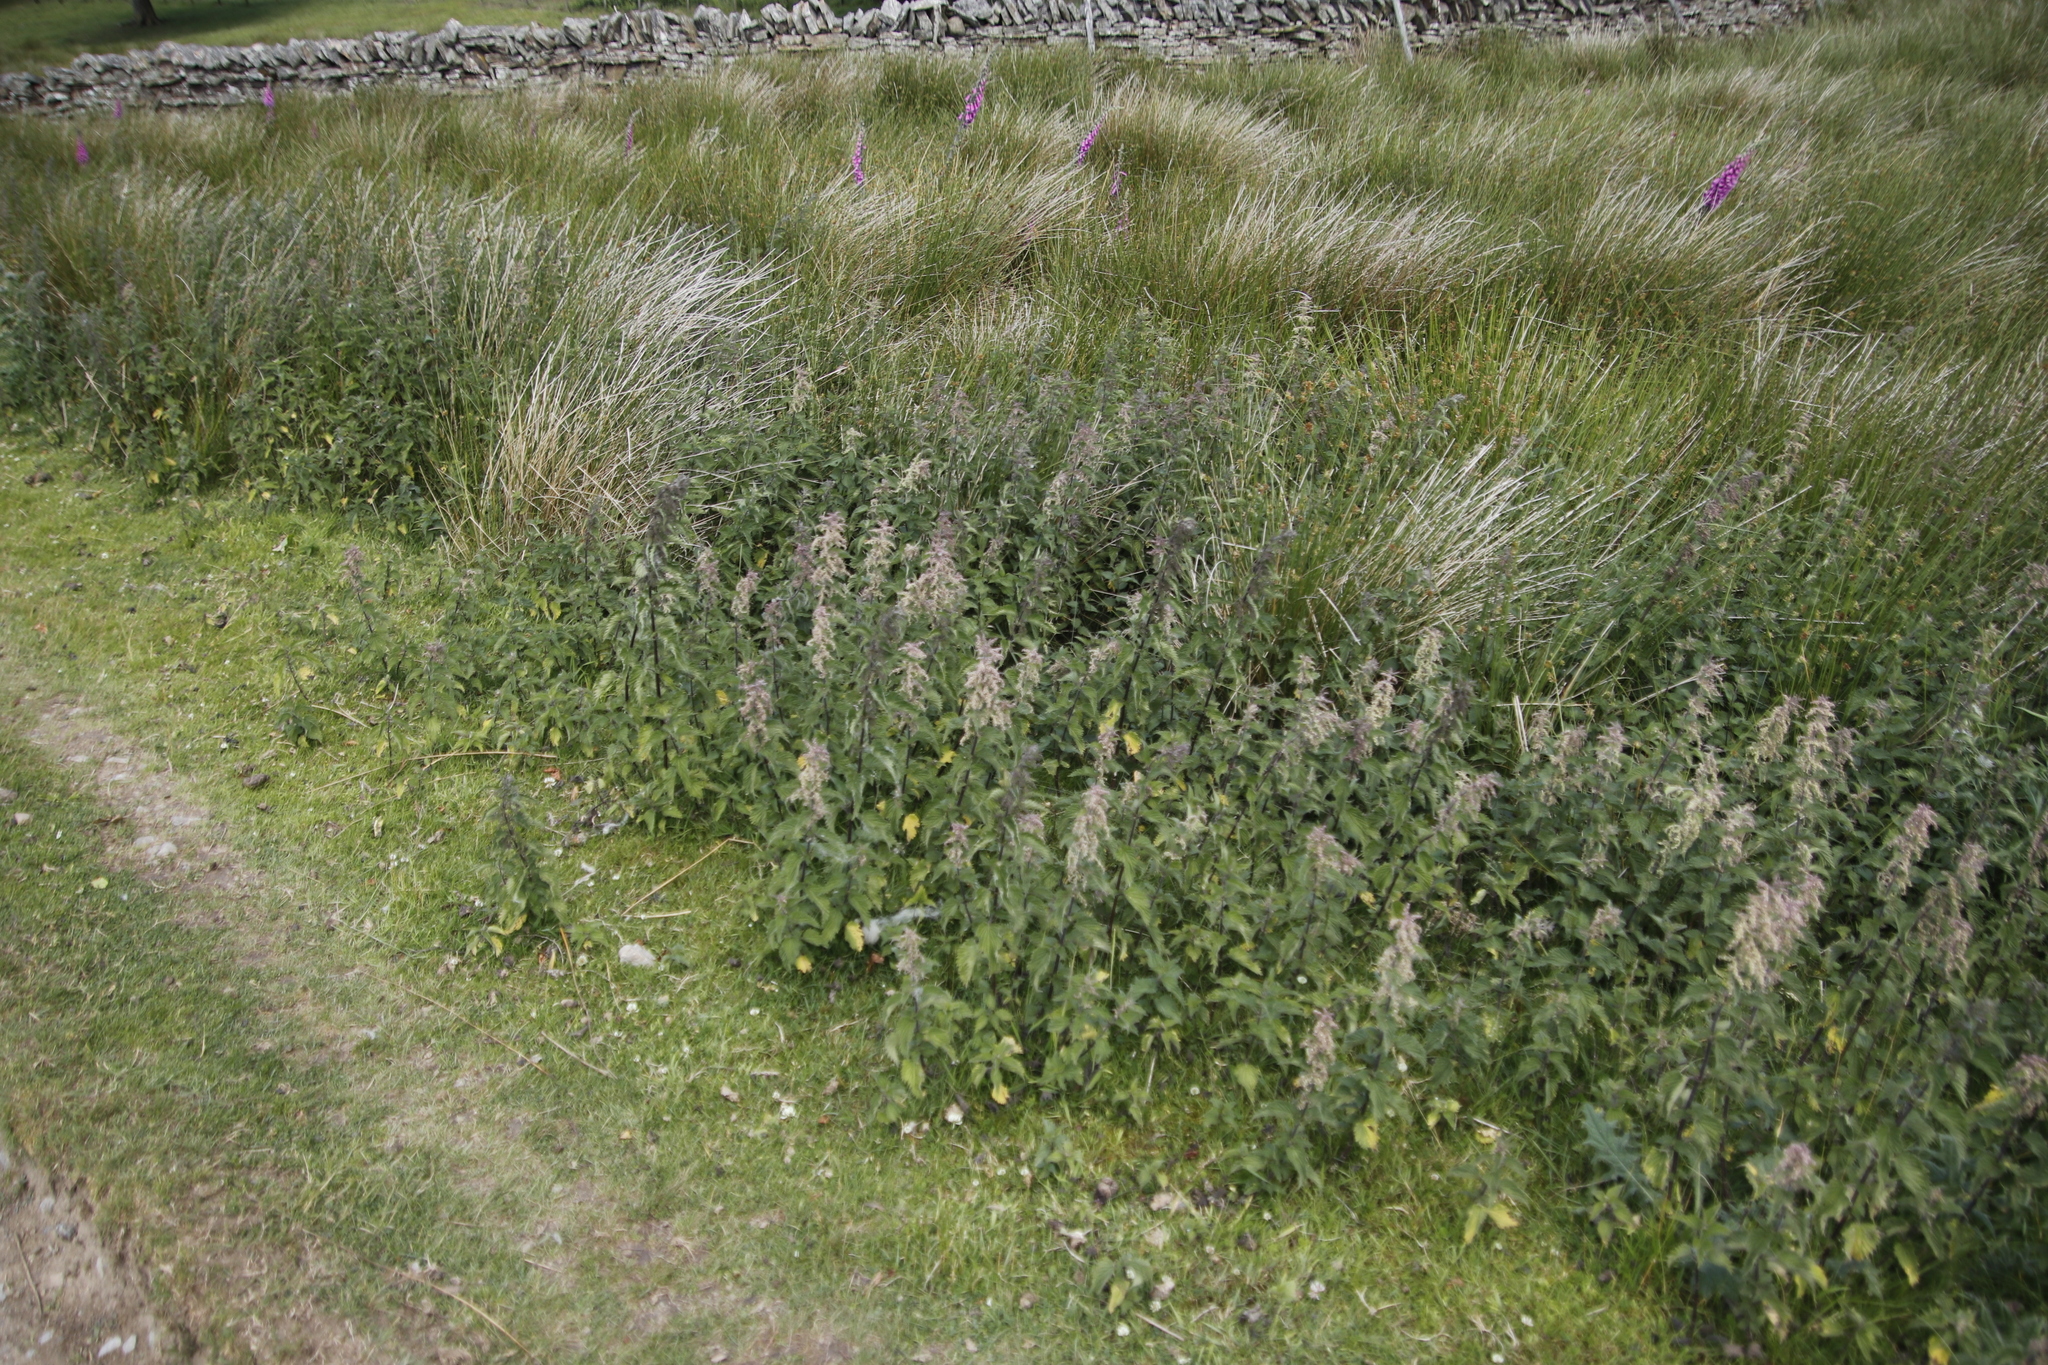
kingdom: Plantae
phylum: Tracheophyta
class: Magnoliopsida
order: Rosales
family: Urticaceae
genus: Urtica
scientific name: Urtica dioica
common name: Common nettle
